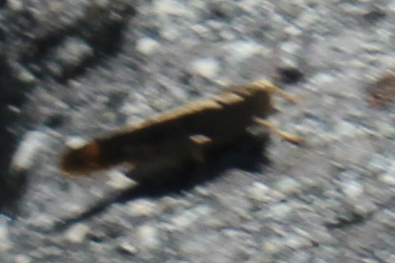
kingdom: Animalia
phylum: Arthropoda
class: Insecta
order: Orthoptera
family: Acrididae
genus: Dissosteira
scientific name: Dissosteira carolina
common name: Carolina grasshopper
